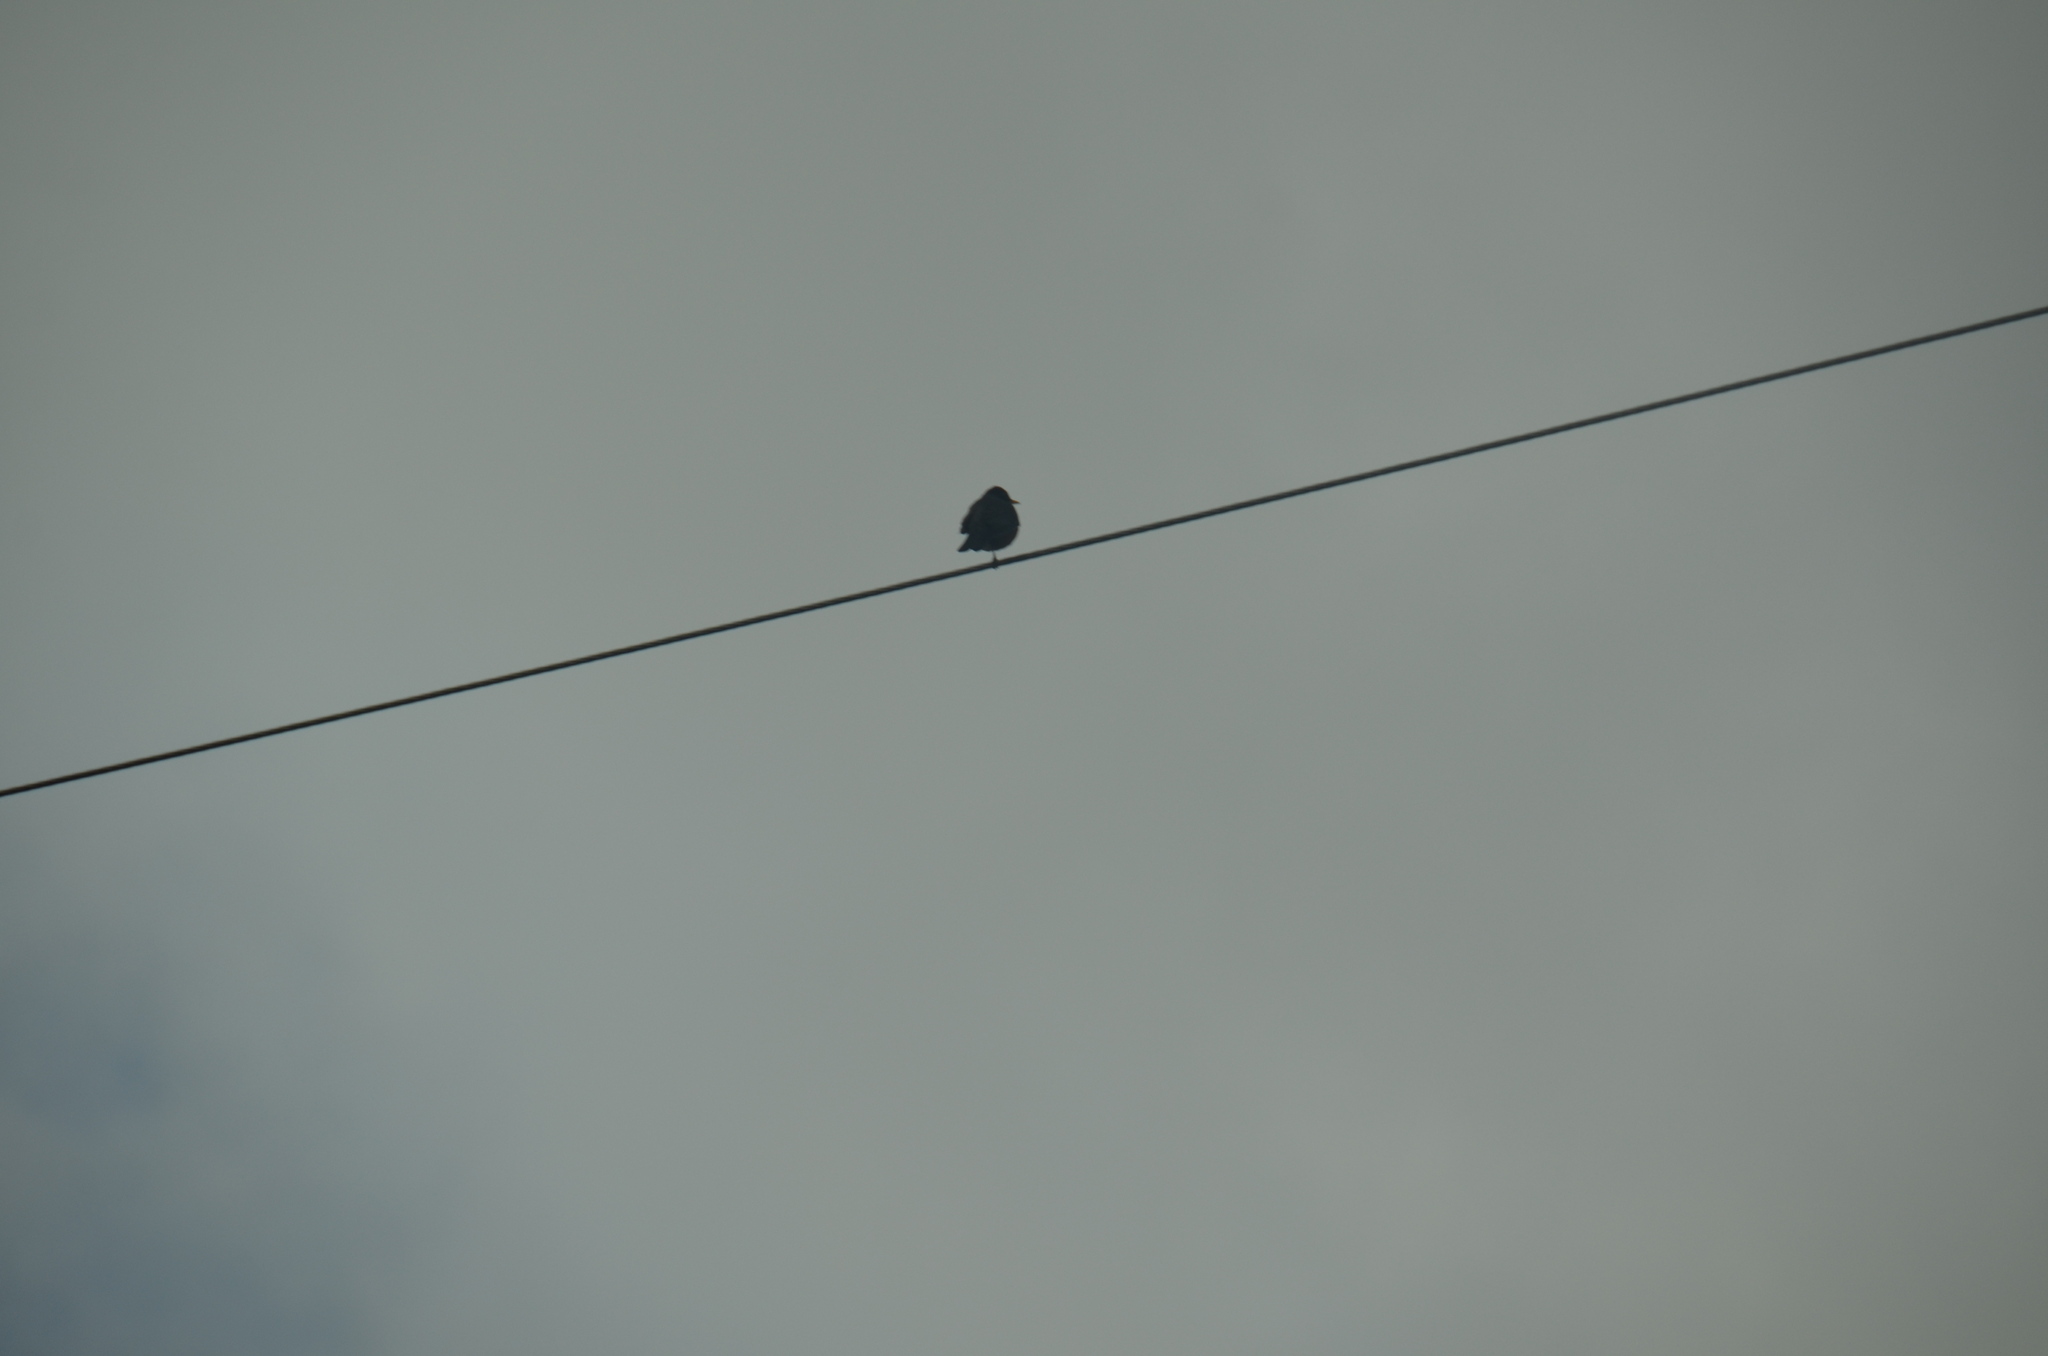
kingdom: Animalia
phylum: Chordata
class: Aves
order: Passeriformes
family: Turdidae
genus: Turdus
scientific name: Turdus migratorius
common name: American robin
